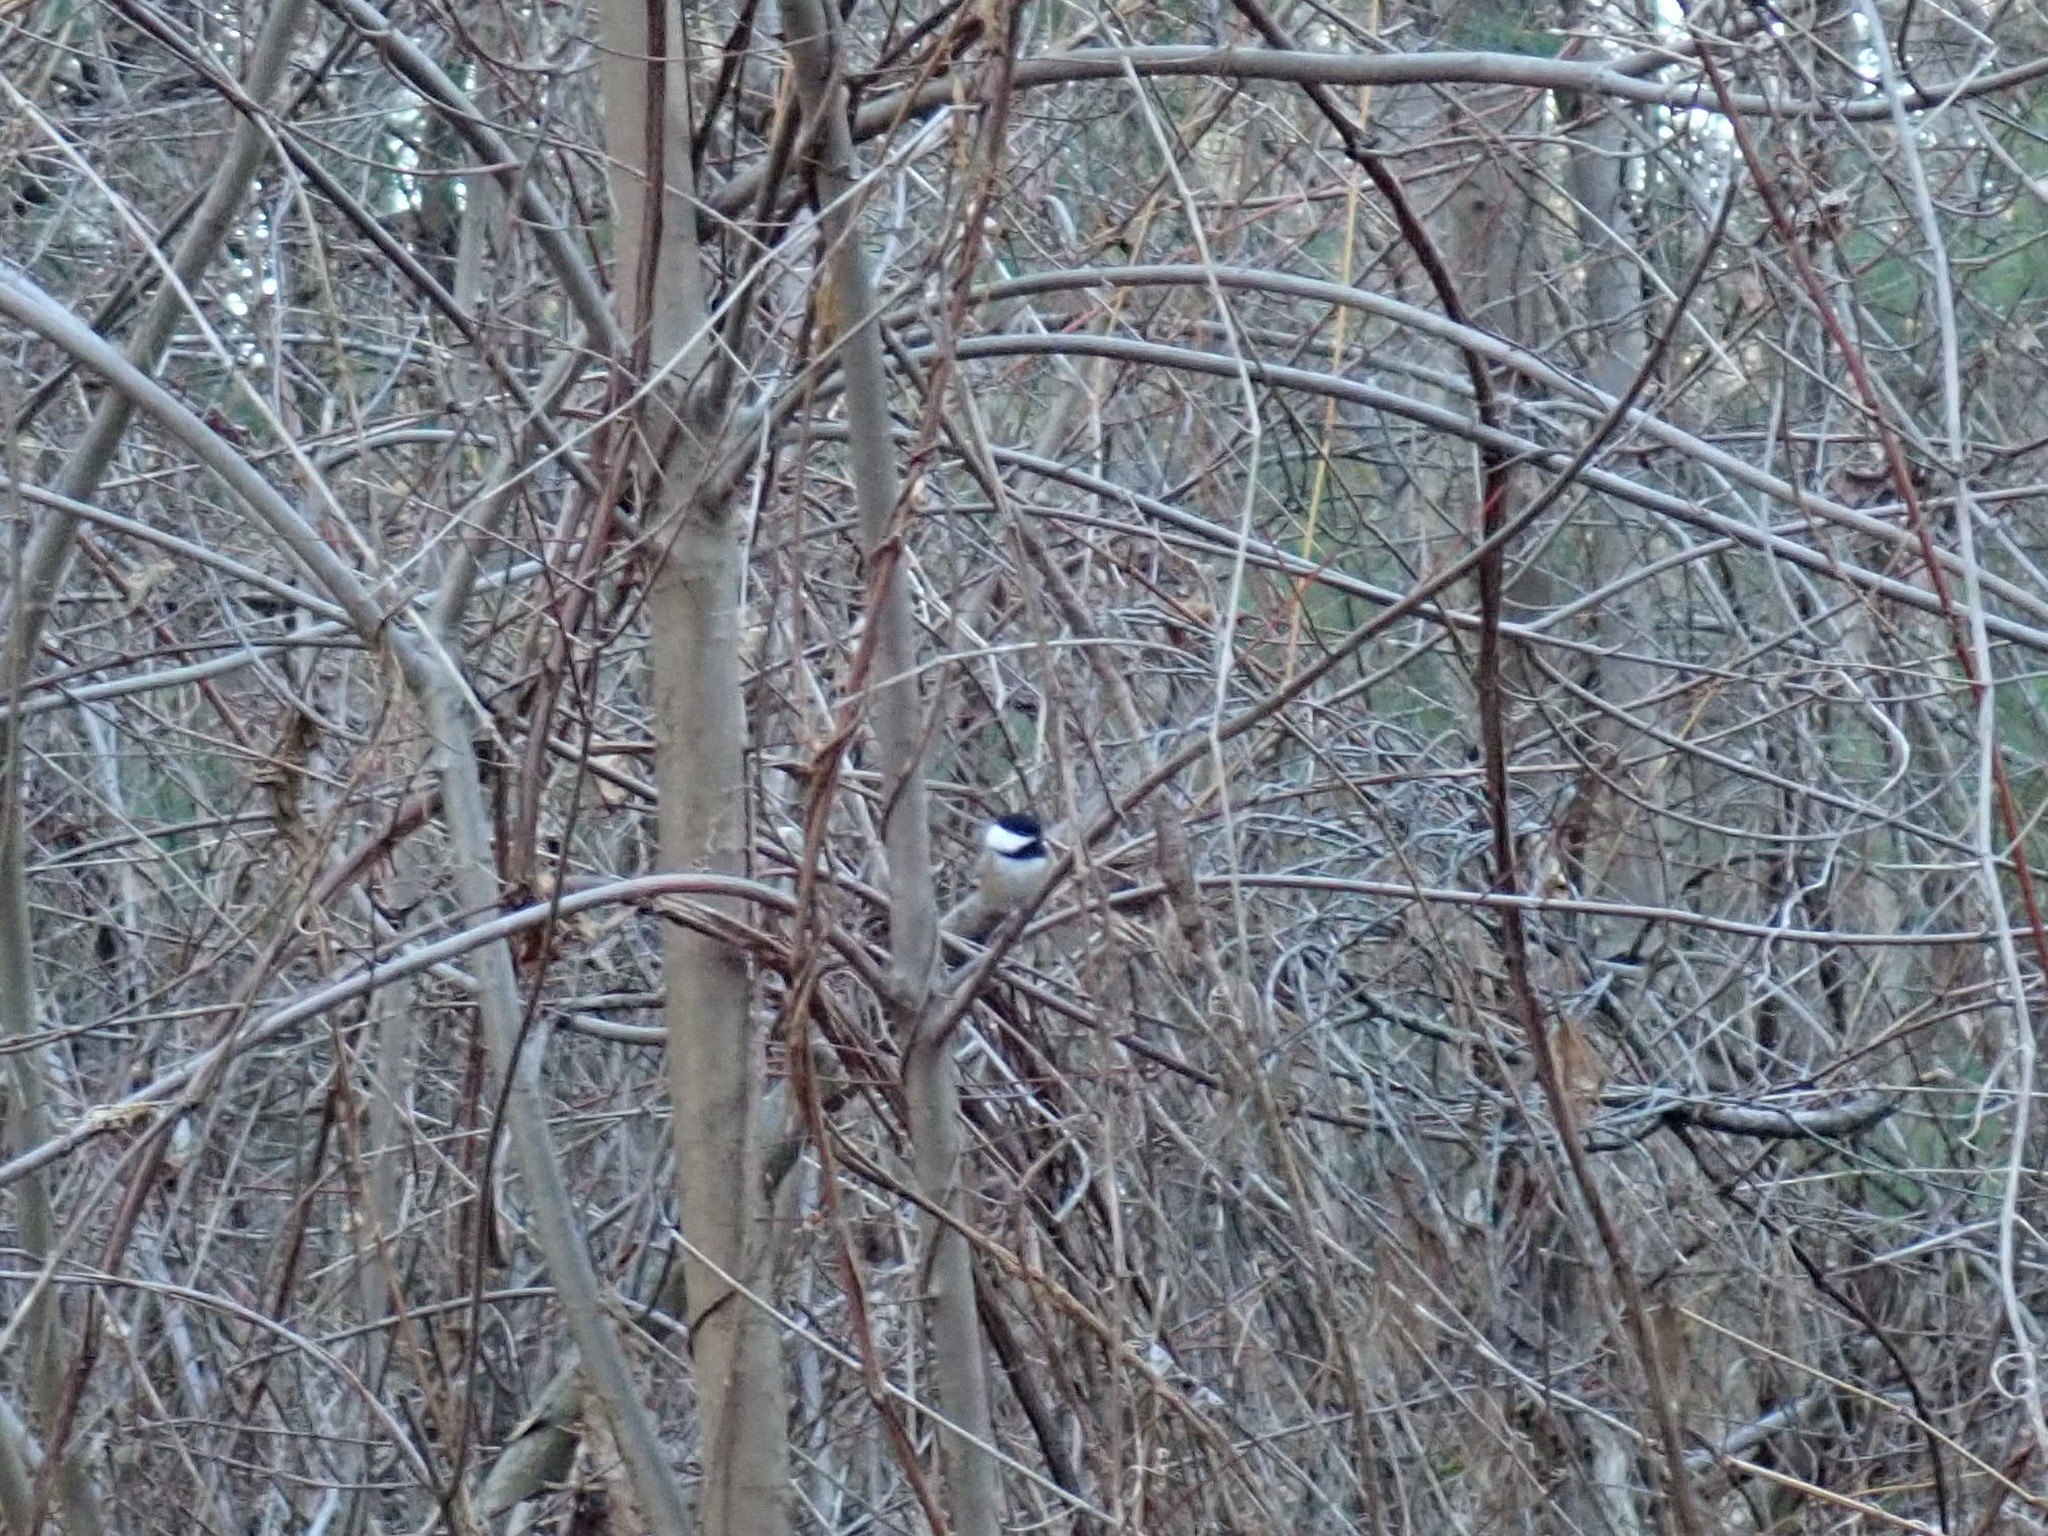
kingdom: Animalia
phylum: Chordata
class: Aves
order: Passeriformes
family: Paridae
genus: Poecile
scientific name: Poecile atricapillus
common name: Black-capped chickadee
